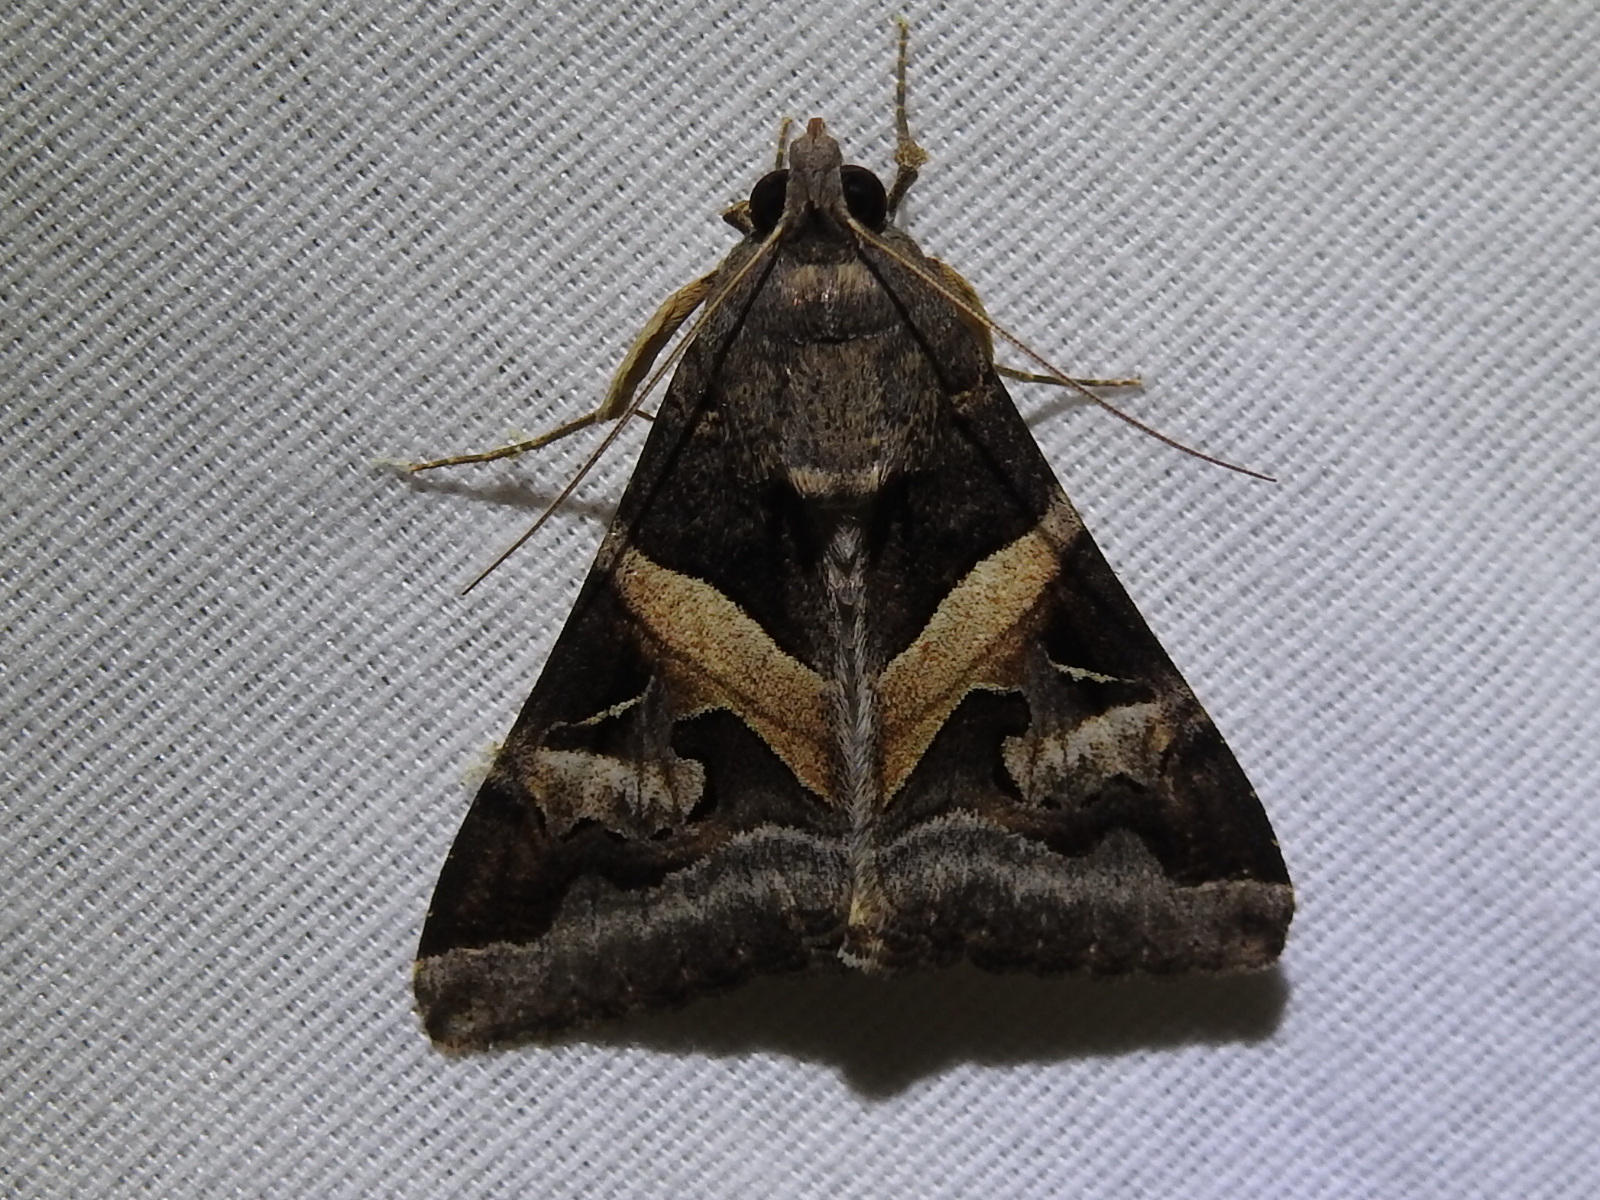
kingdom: Animalia
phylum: Arthropoda
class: Insecta
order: Lepidoptera
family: Erebidae
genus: Melipotis
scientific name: Melipotis indomita
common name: Moth
